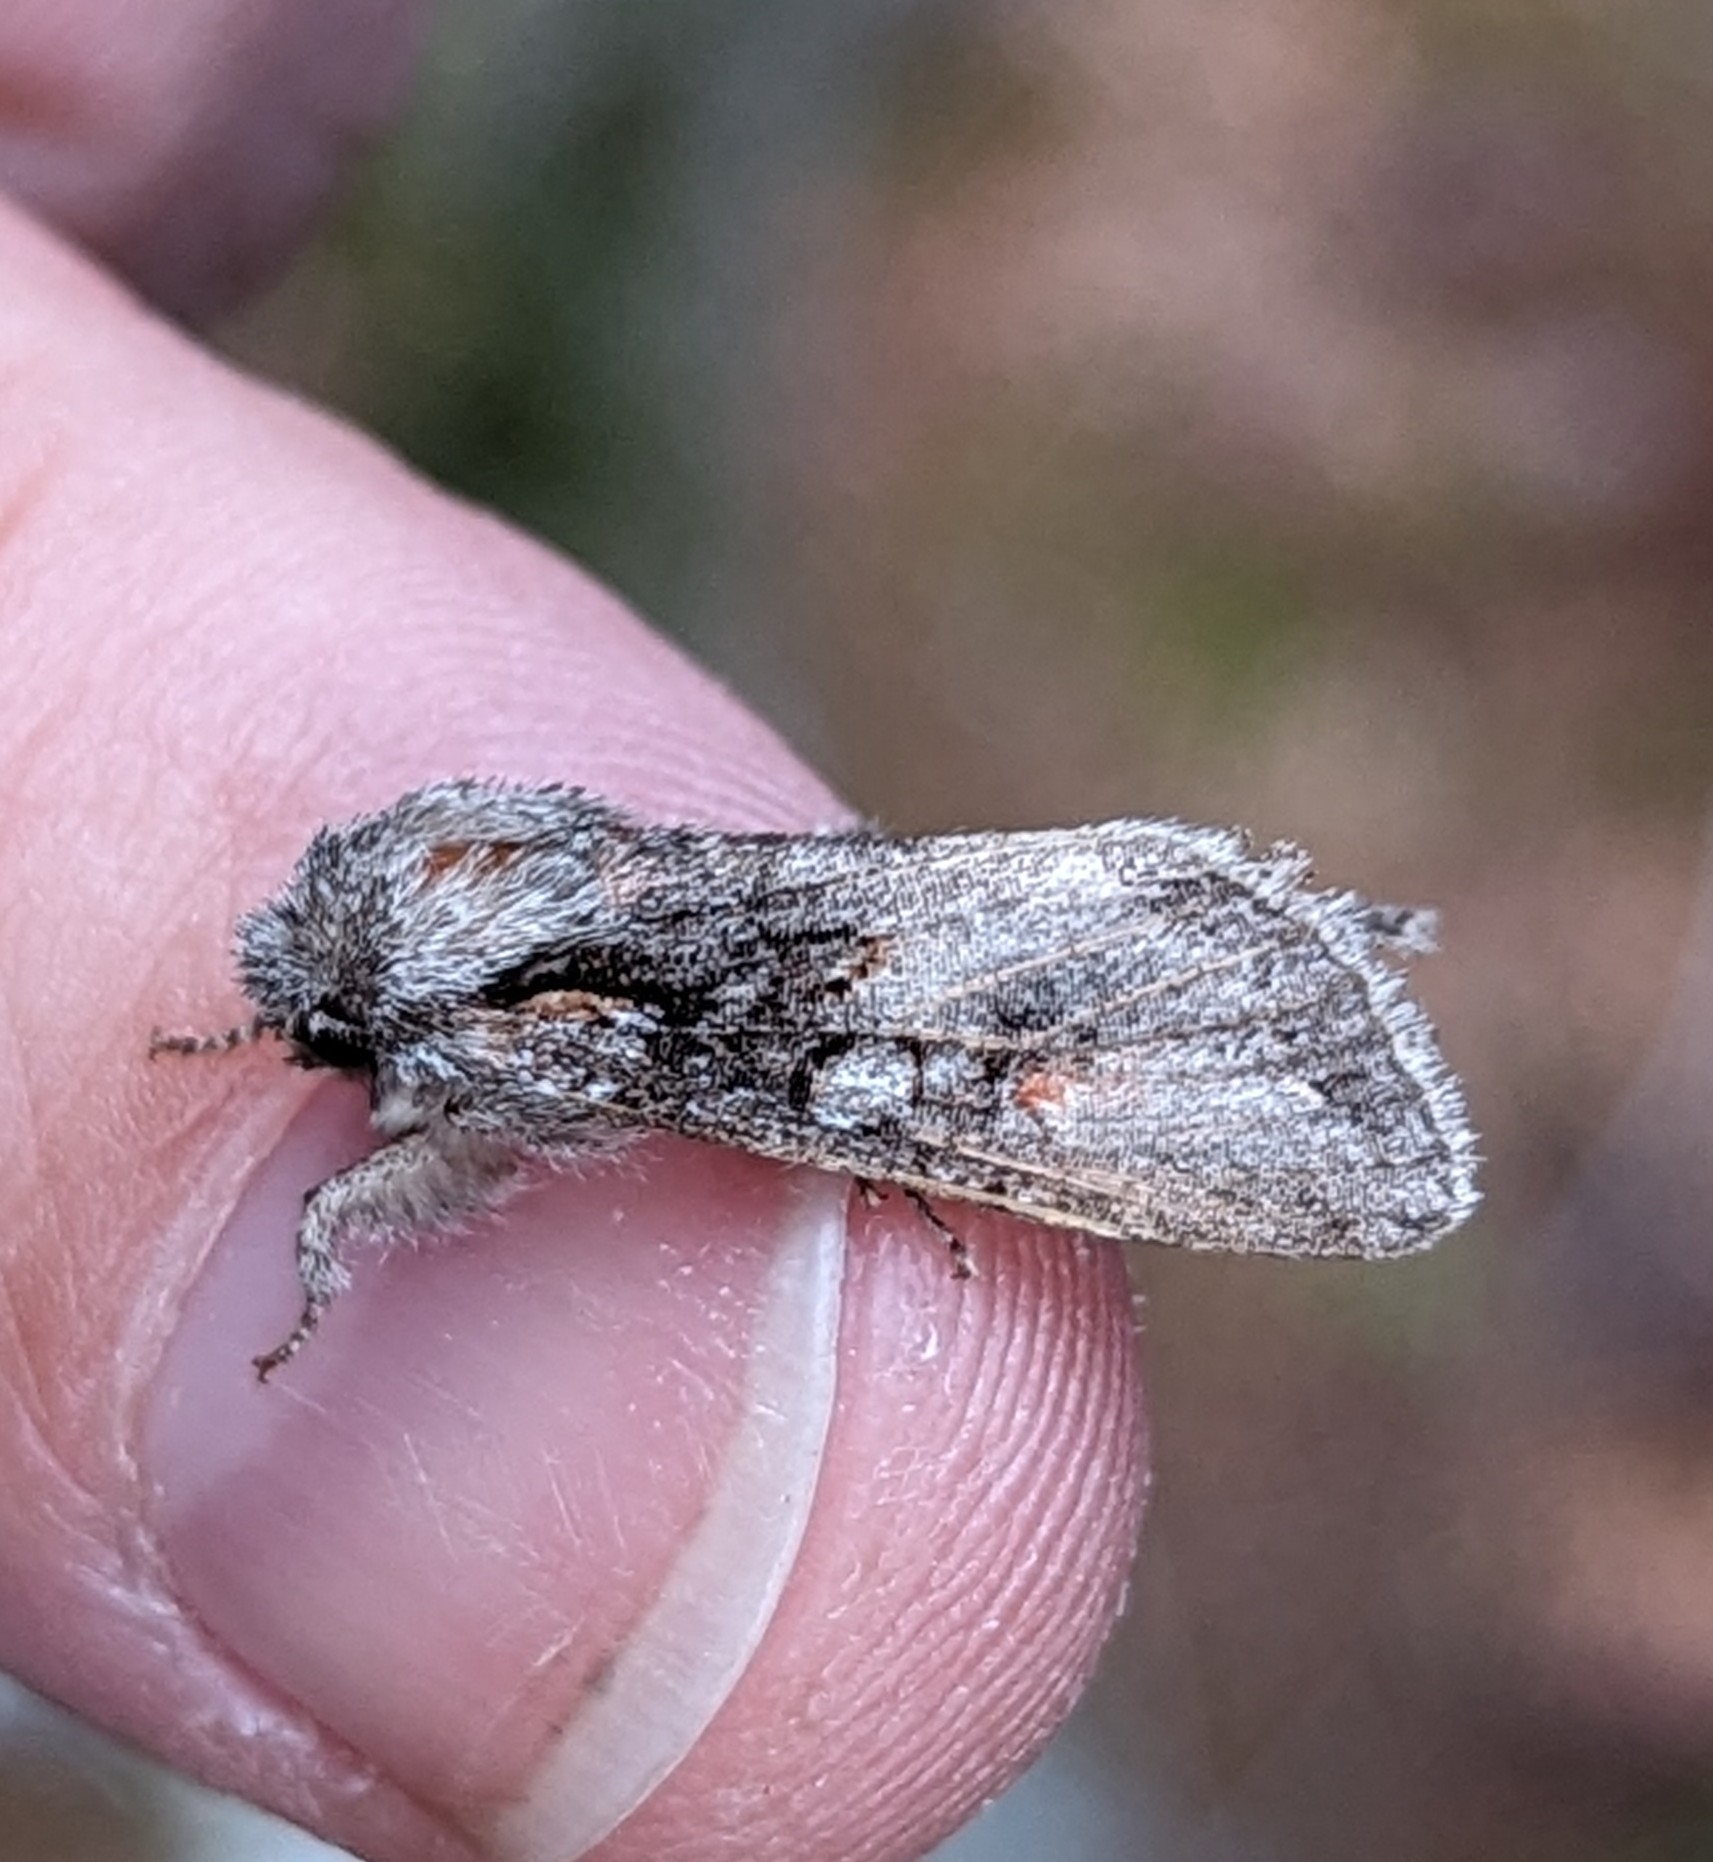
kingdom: Animalia
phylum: Arthropoda
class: Insecta
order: Lepidoptera
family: Noctuidae
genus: Egira
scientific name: Egira hiemalis
